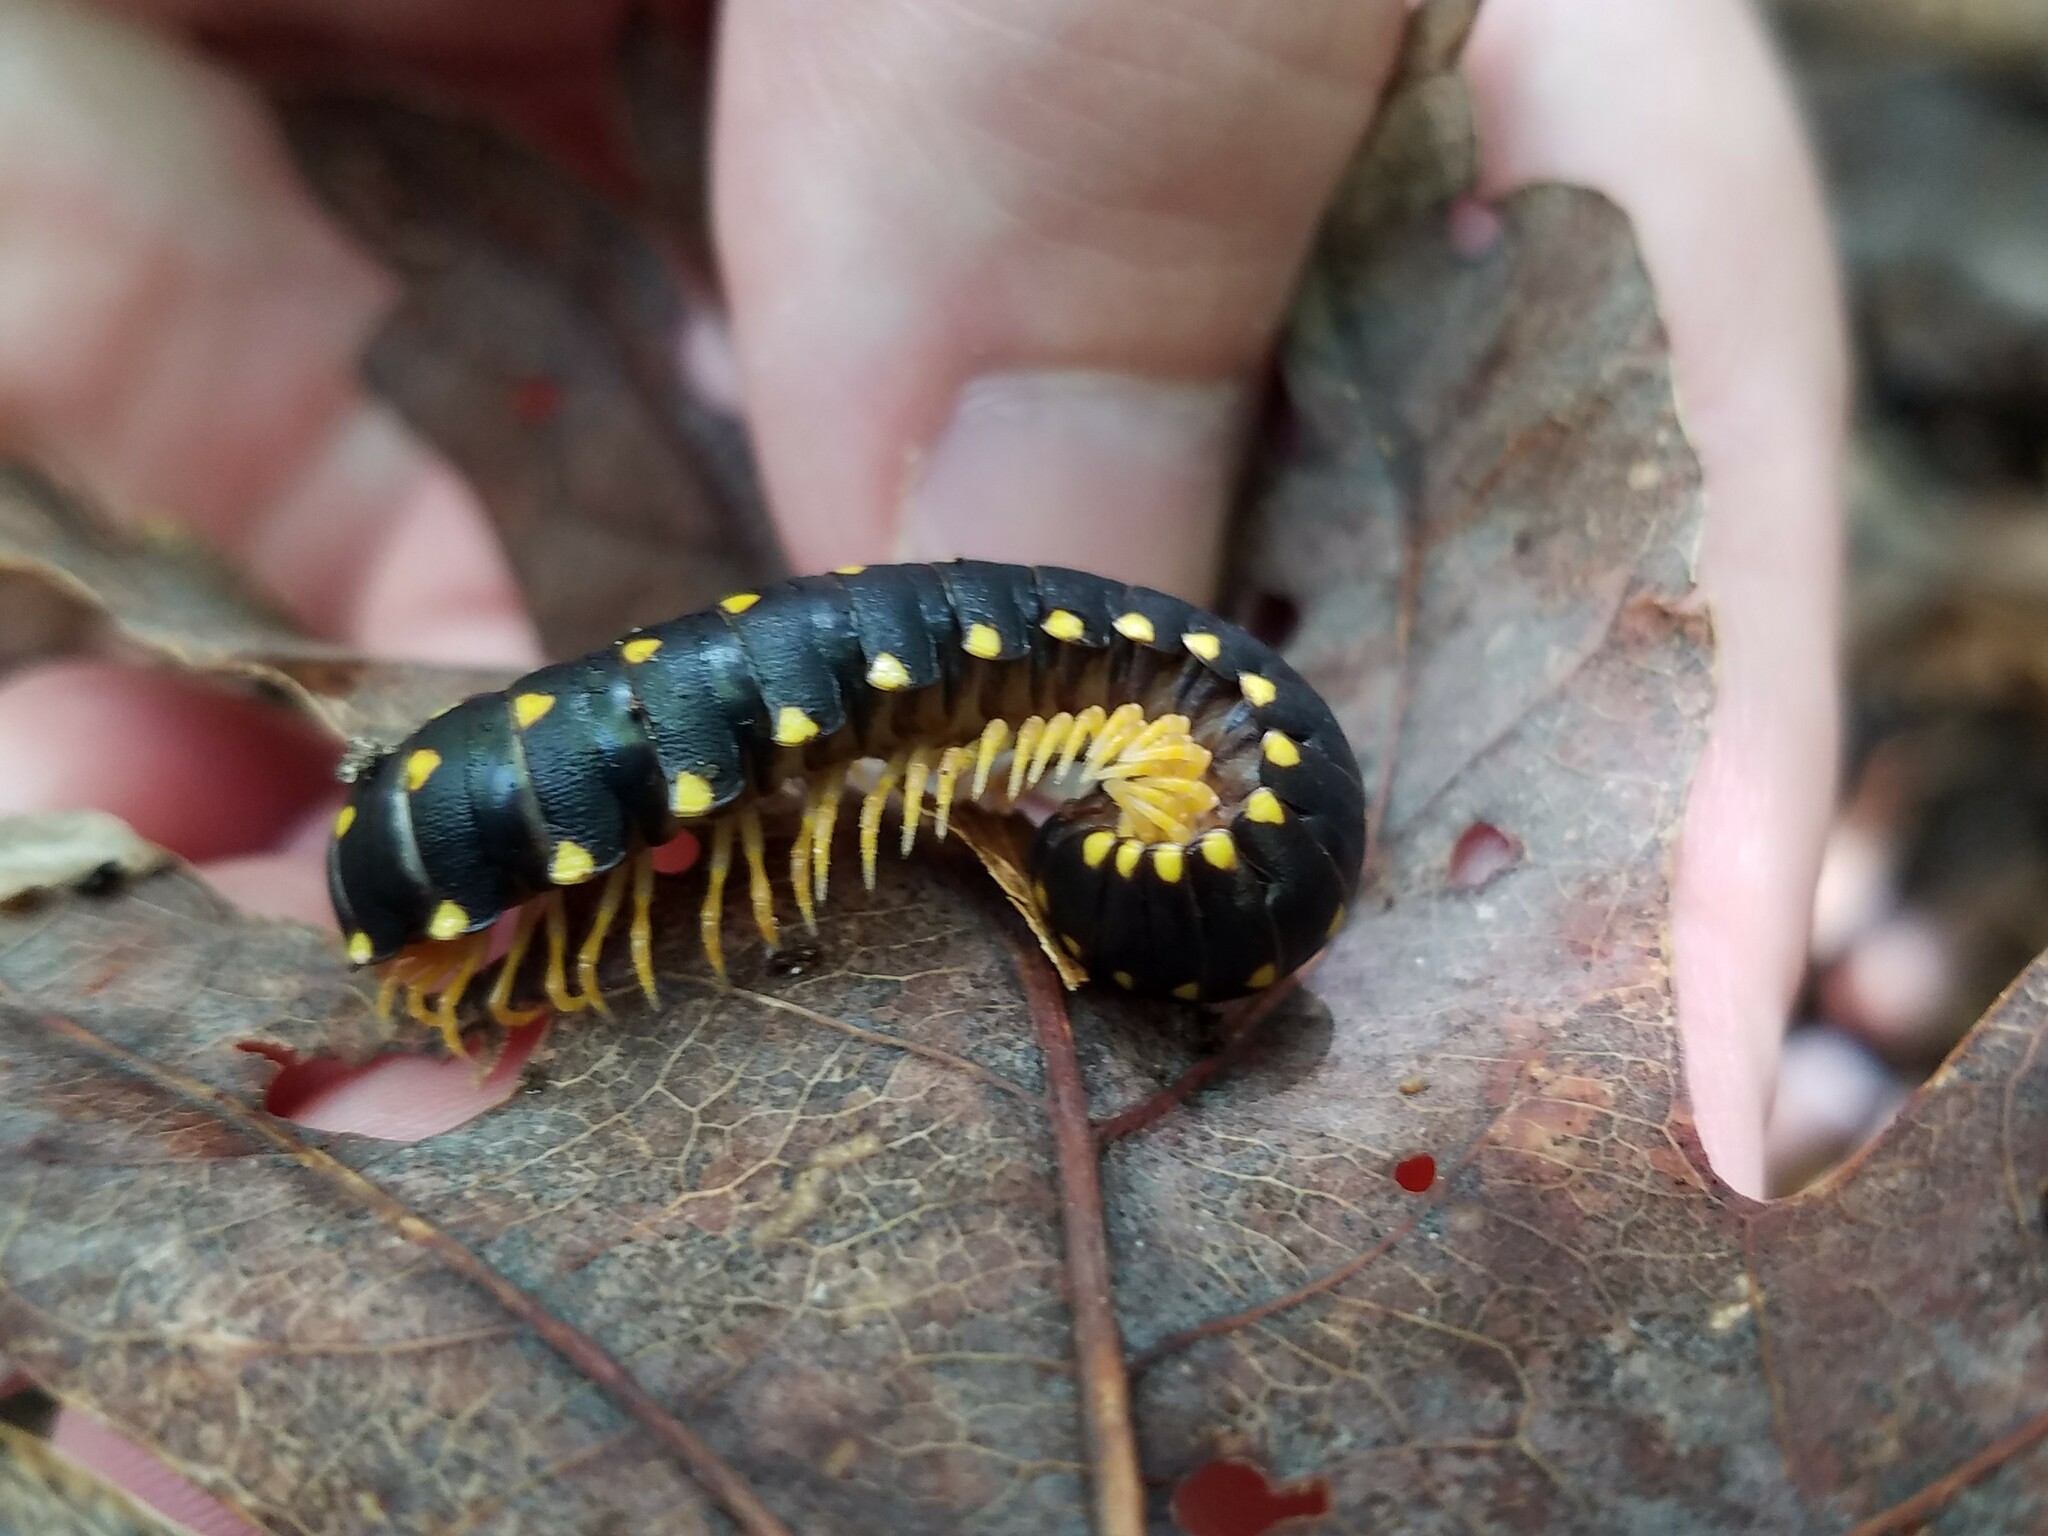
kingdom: Animalia
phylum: Arthropoda
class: Diplopoda
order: Polydesmida
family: Xystodesmidae
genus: Cherokia
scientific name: Cherokia georgiana
